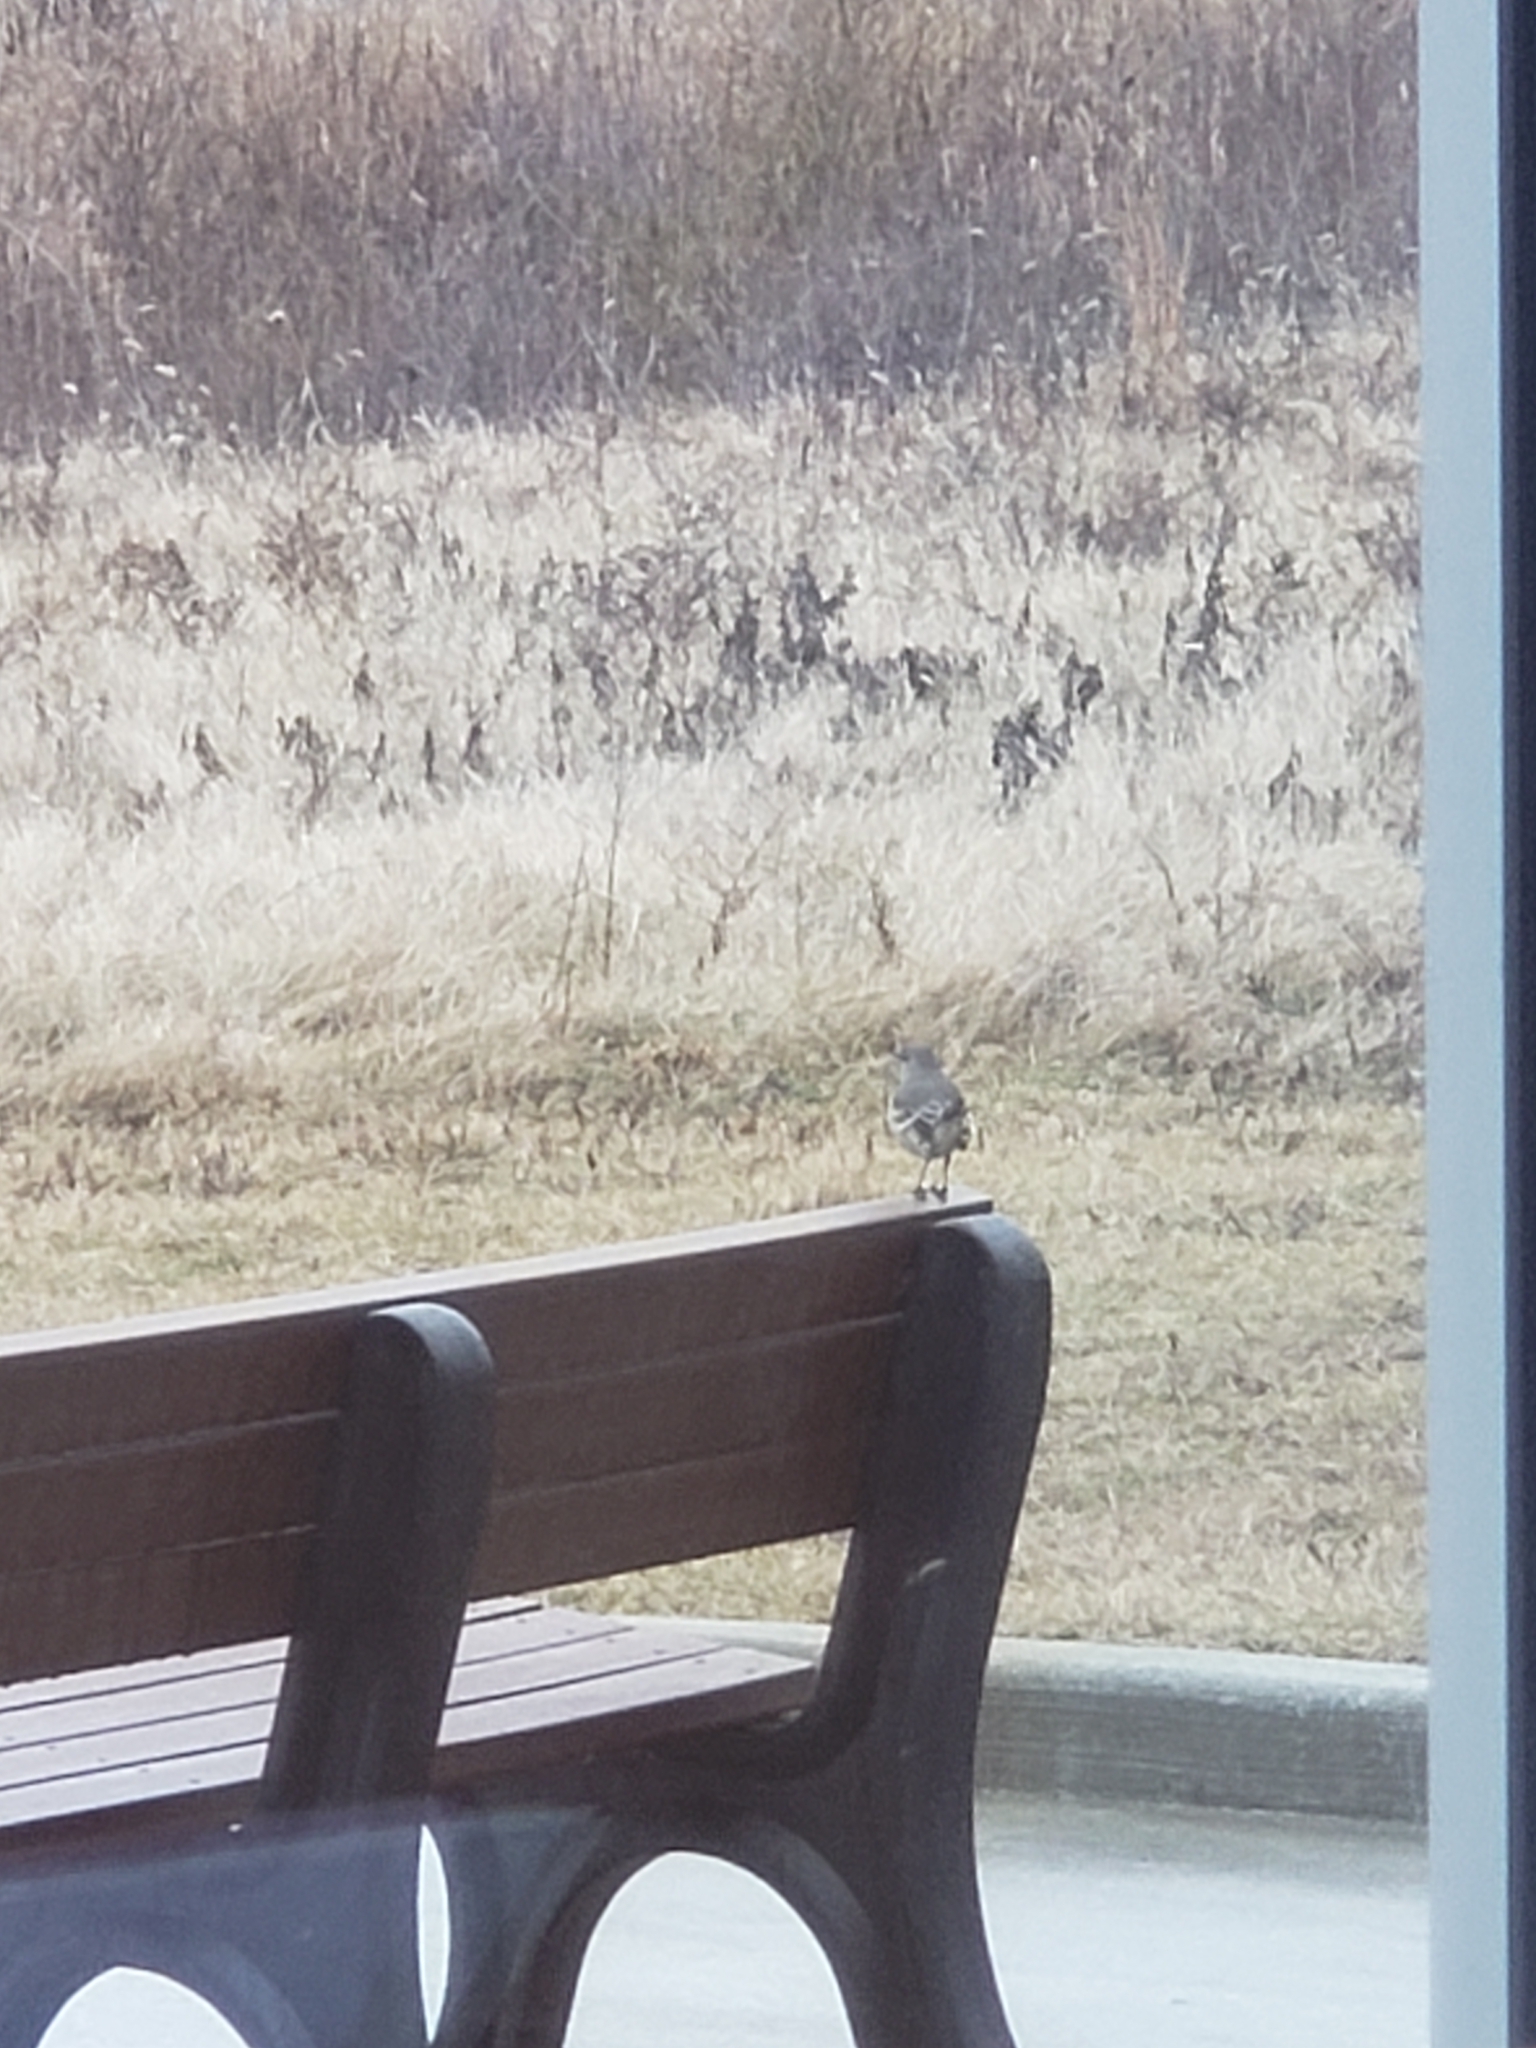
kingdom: Animalia
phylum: Chordata
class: Aves
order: Passeriformes
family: Mimidae
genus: Mimus
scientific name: Mimus polyglottos
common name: Northern mockingbird
